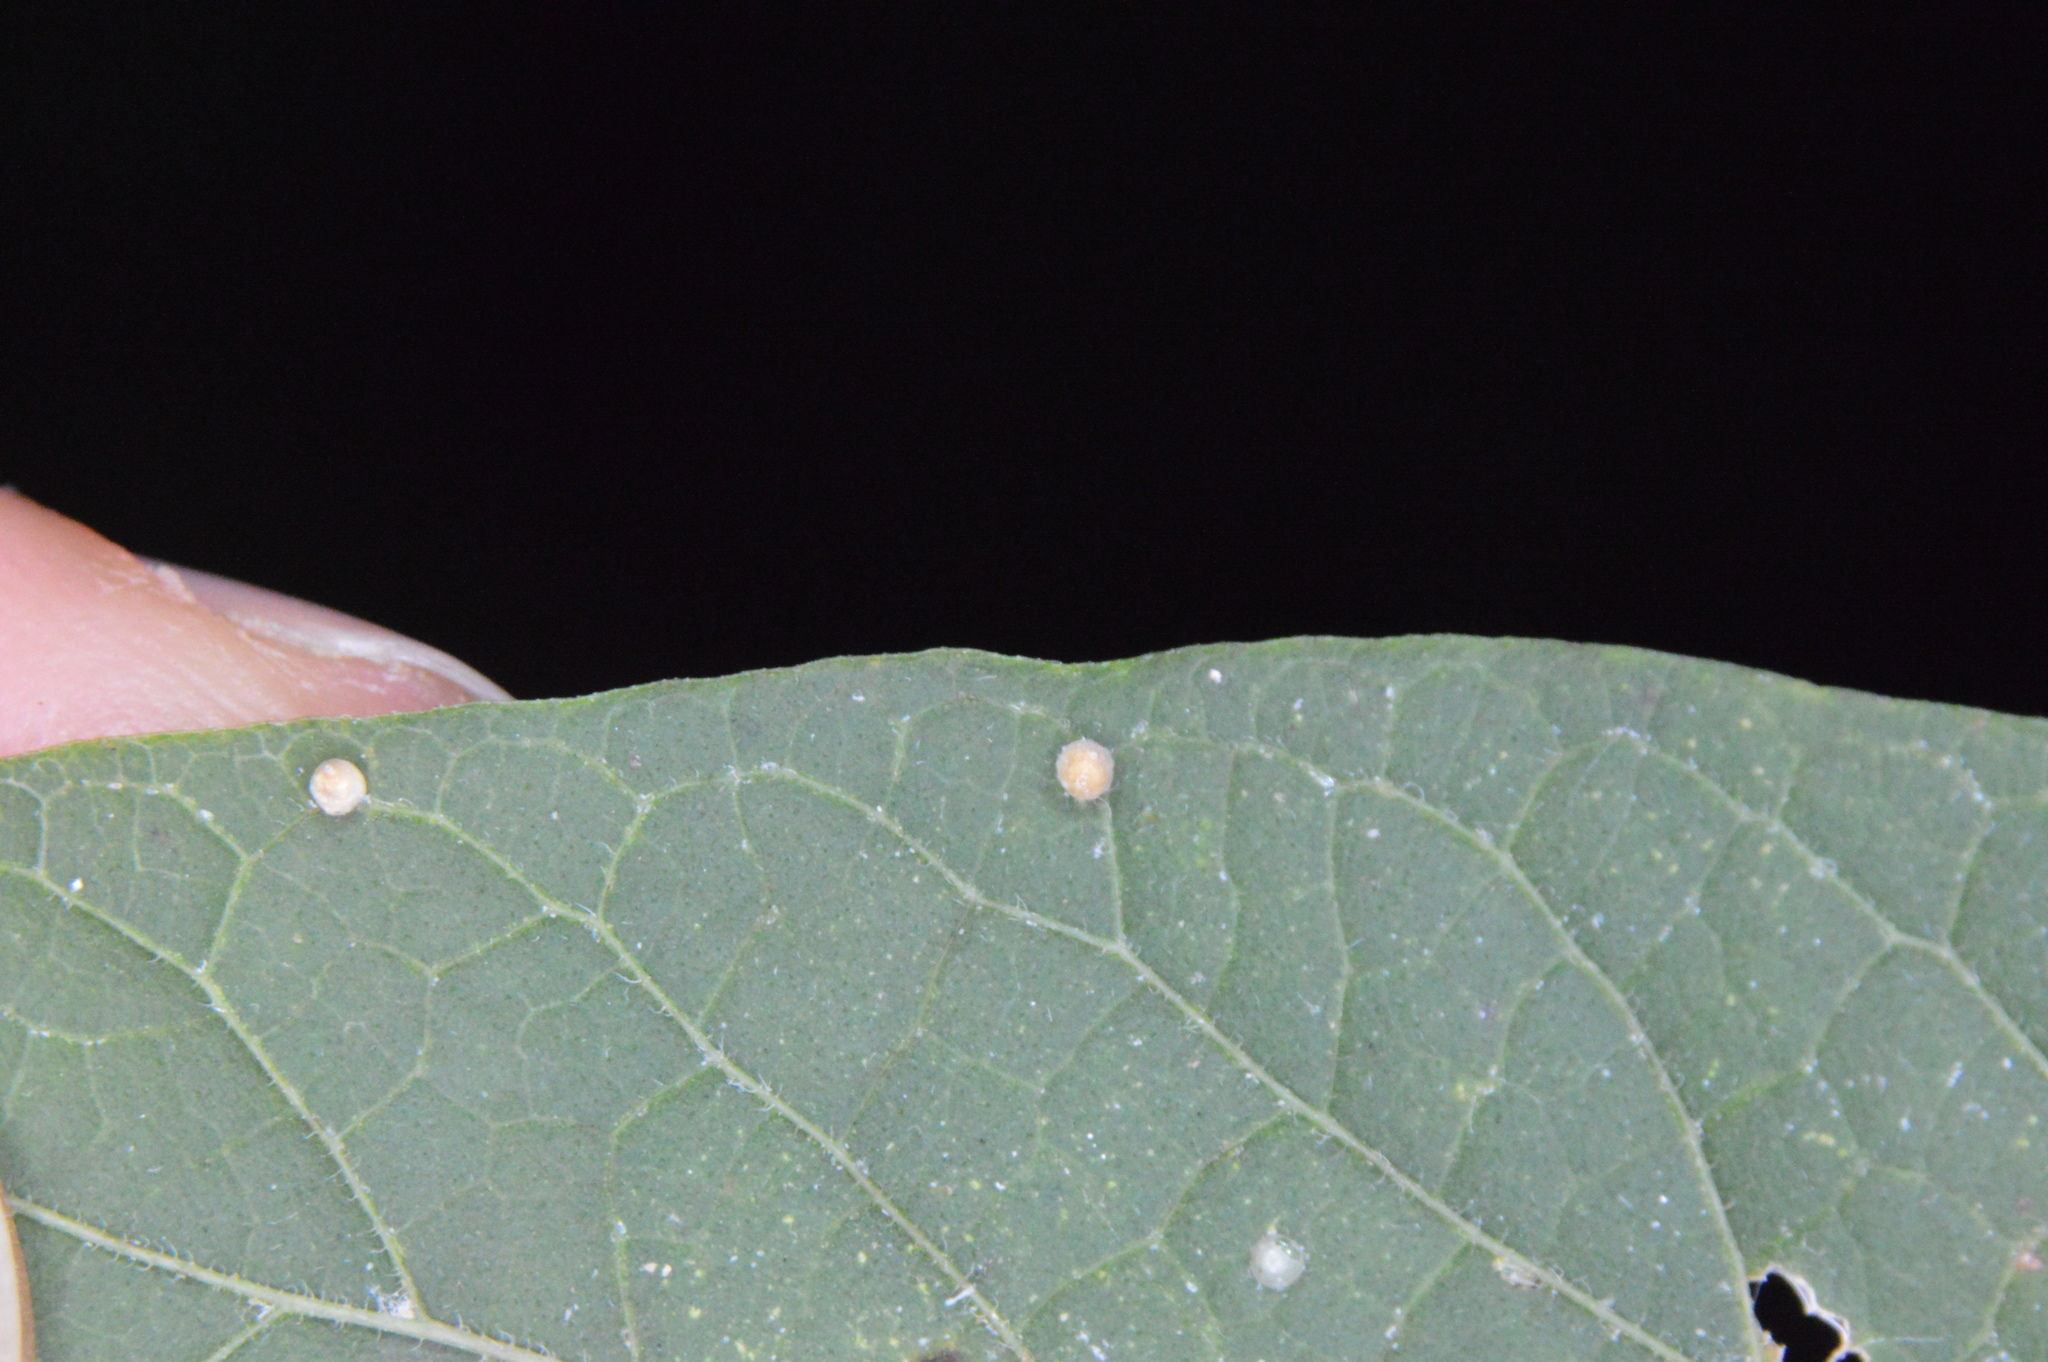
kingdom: Animalia
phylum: Arthropoda
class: Insecta
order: Diptera
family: Cecidomyiidae
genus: Celticecis
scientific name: Celticecis cupiformis
